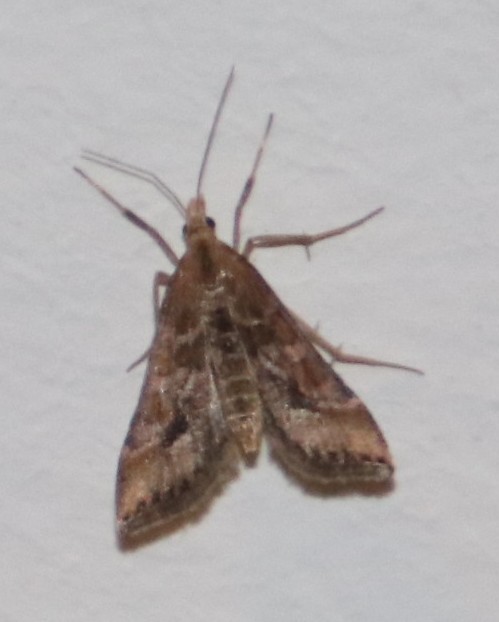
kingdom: Animalia
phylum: Arthropoda
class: Insecta
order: Lepidoptera
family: Crambidae
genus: Diasemia
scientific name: Diasemia monostigma
